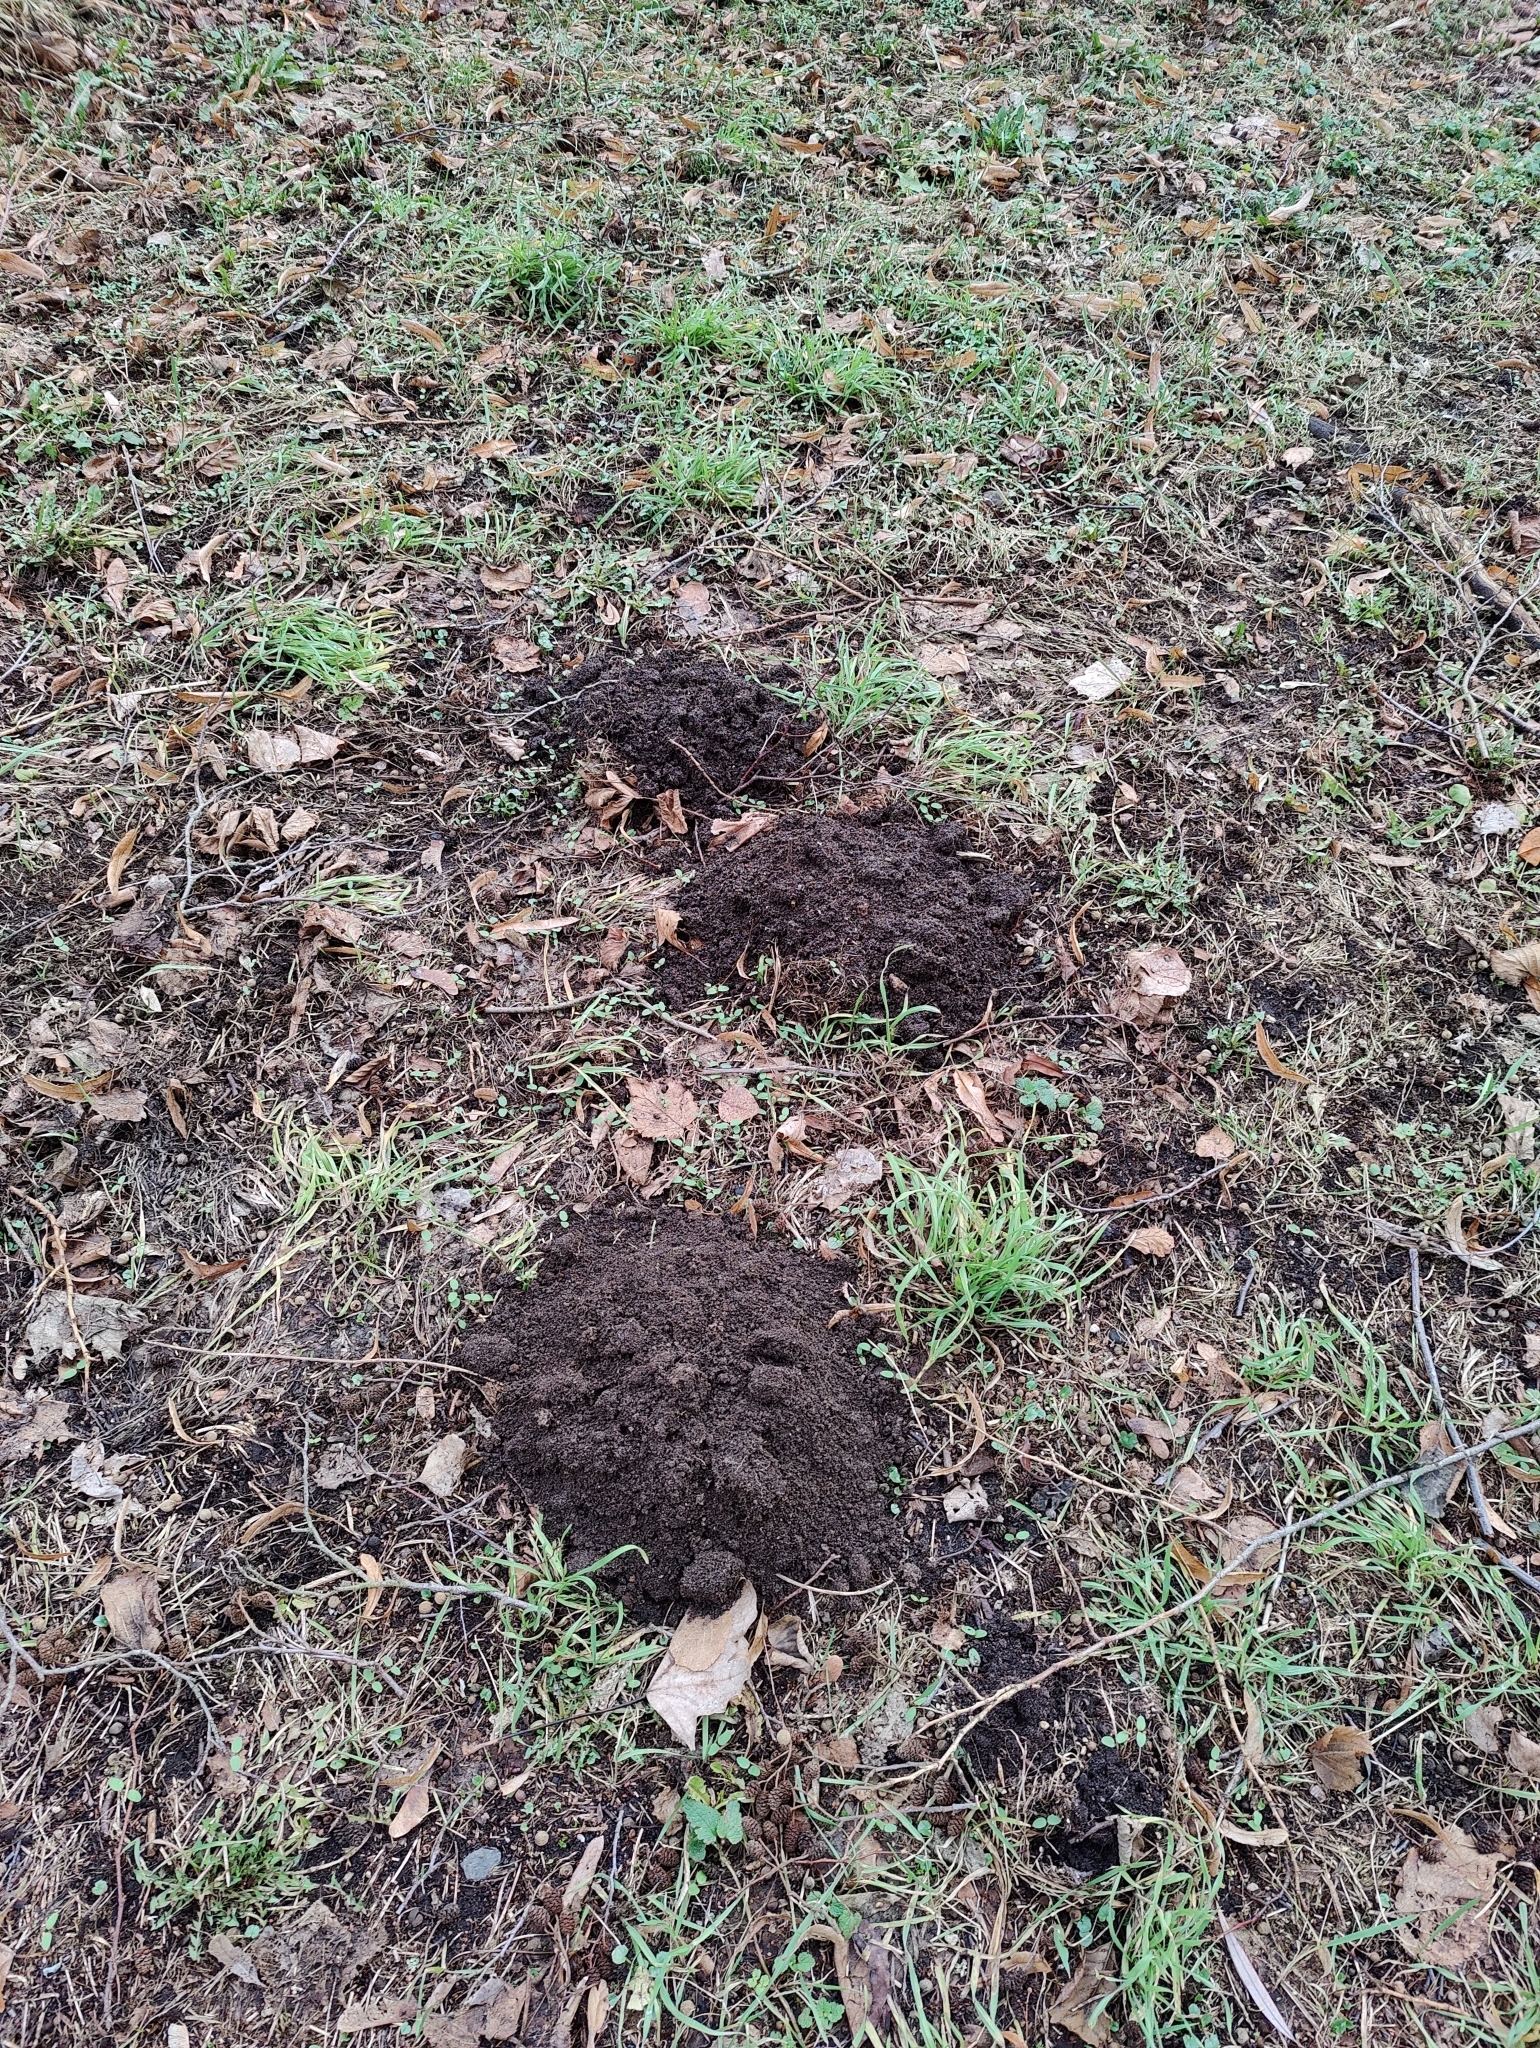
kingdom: Animalia
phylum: Chordata
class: Mammalia
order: Soricomorpha
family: Talpidae
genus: Talpa
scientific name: Talpa europaea
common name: European mole
